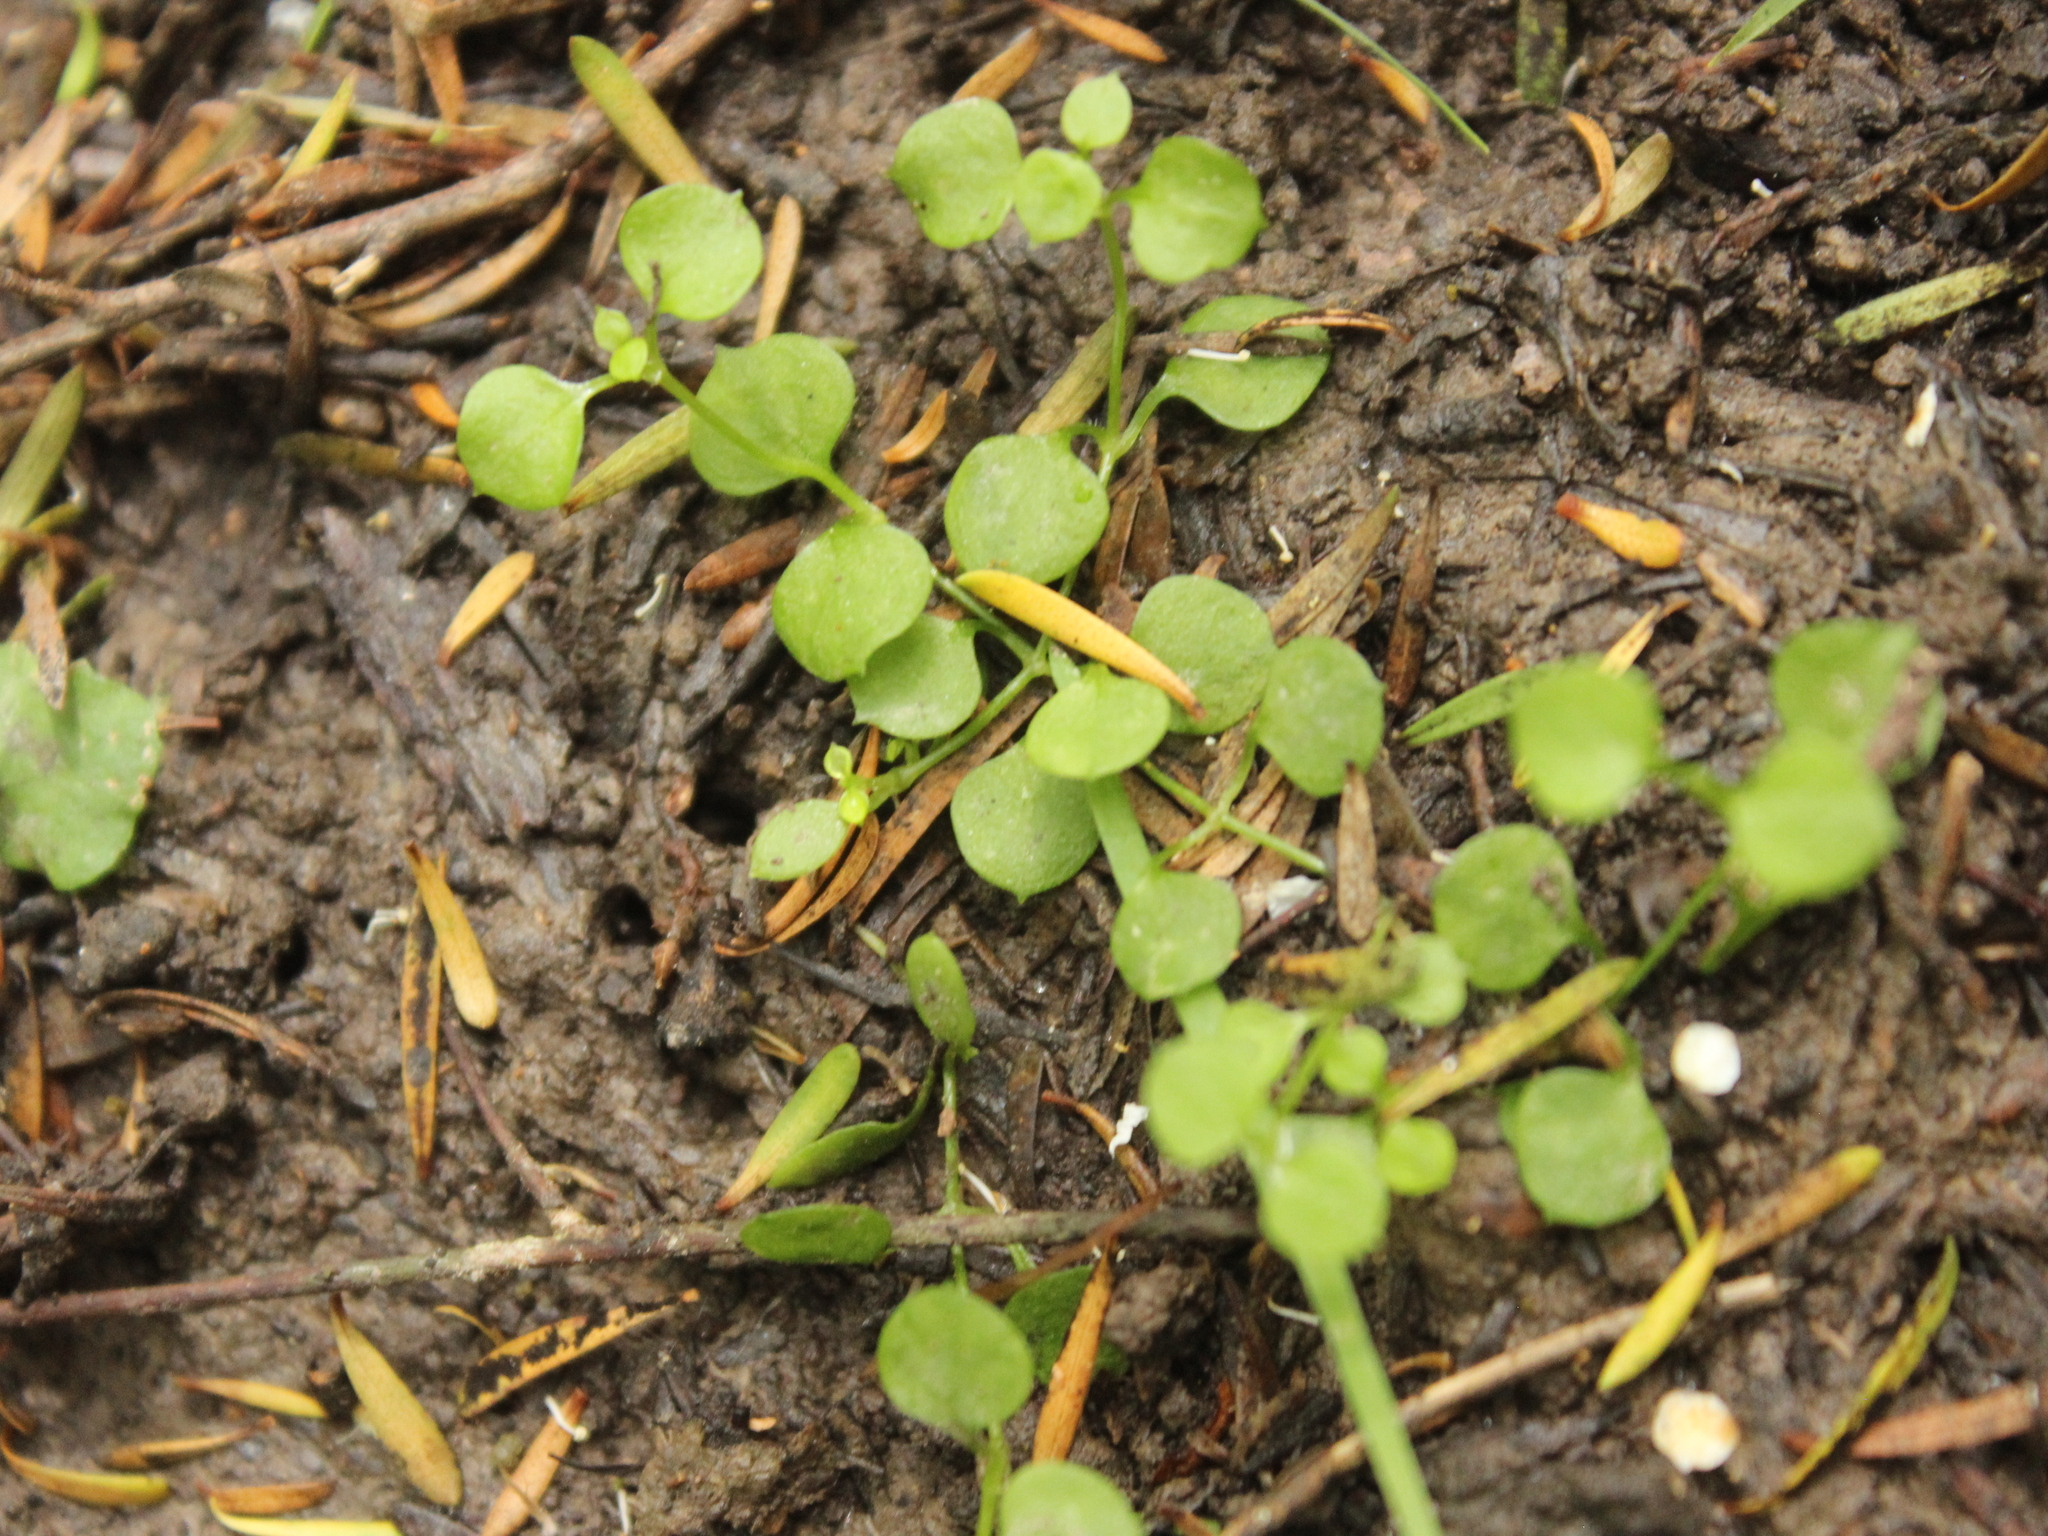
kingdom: Plantae
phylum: Tracheophyta
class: Magnoliopsida
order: Caryophyllales
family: Caryophyllaceae
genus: Stellaria
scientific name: Stellaria parviflora
